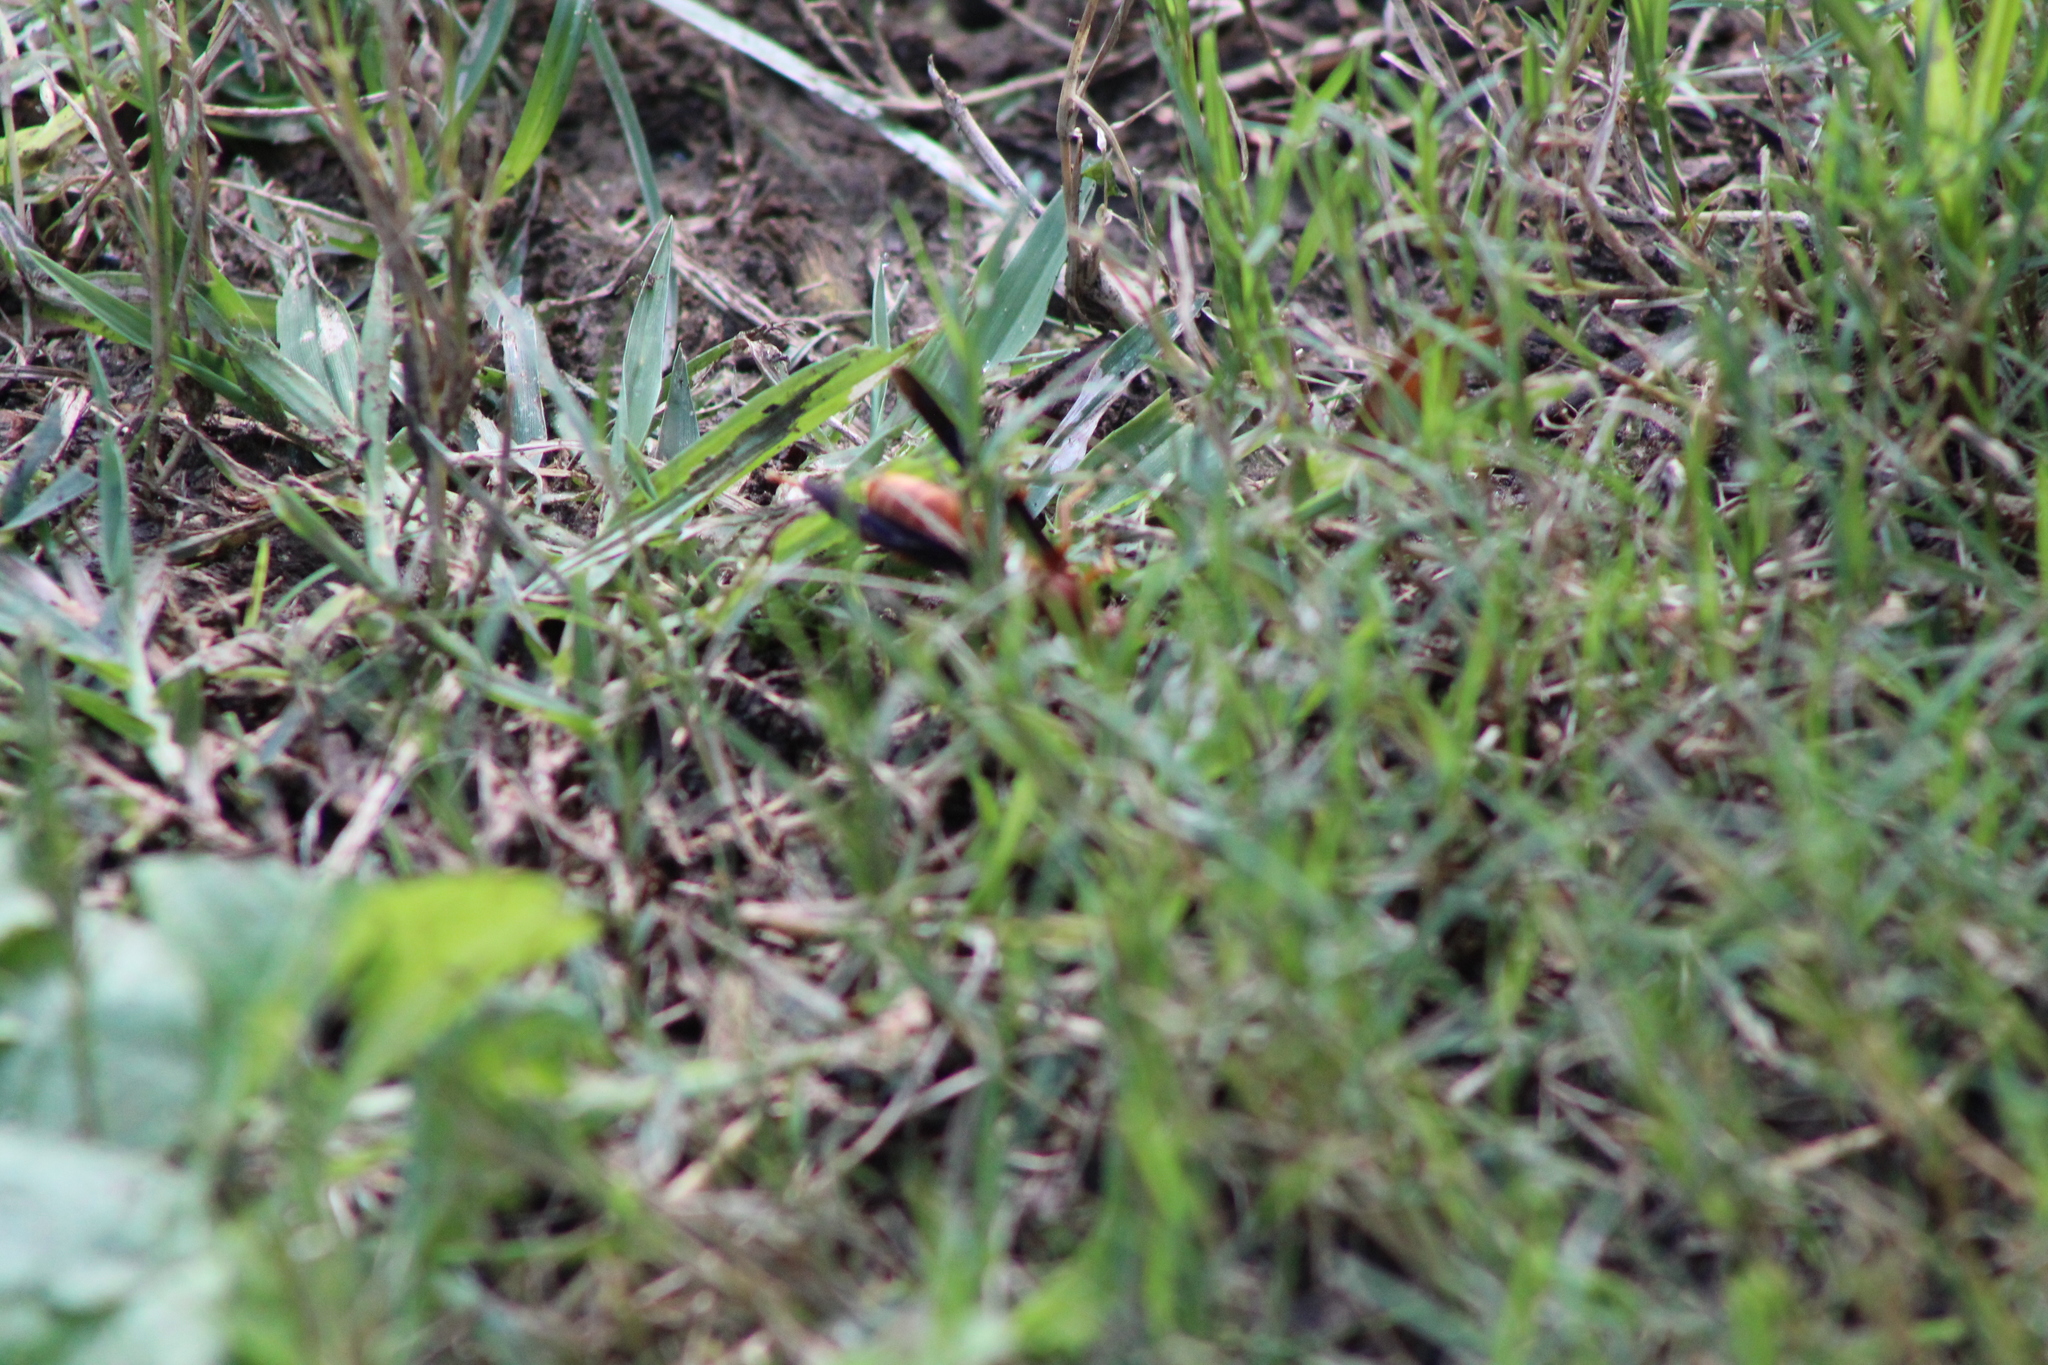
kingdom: Animalia
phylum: Arthropoda
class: Insecta
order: Hymenoptera
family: Vespidae
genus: Fuscopolistes
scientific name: Fuscopolistes
